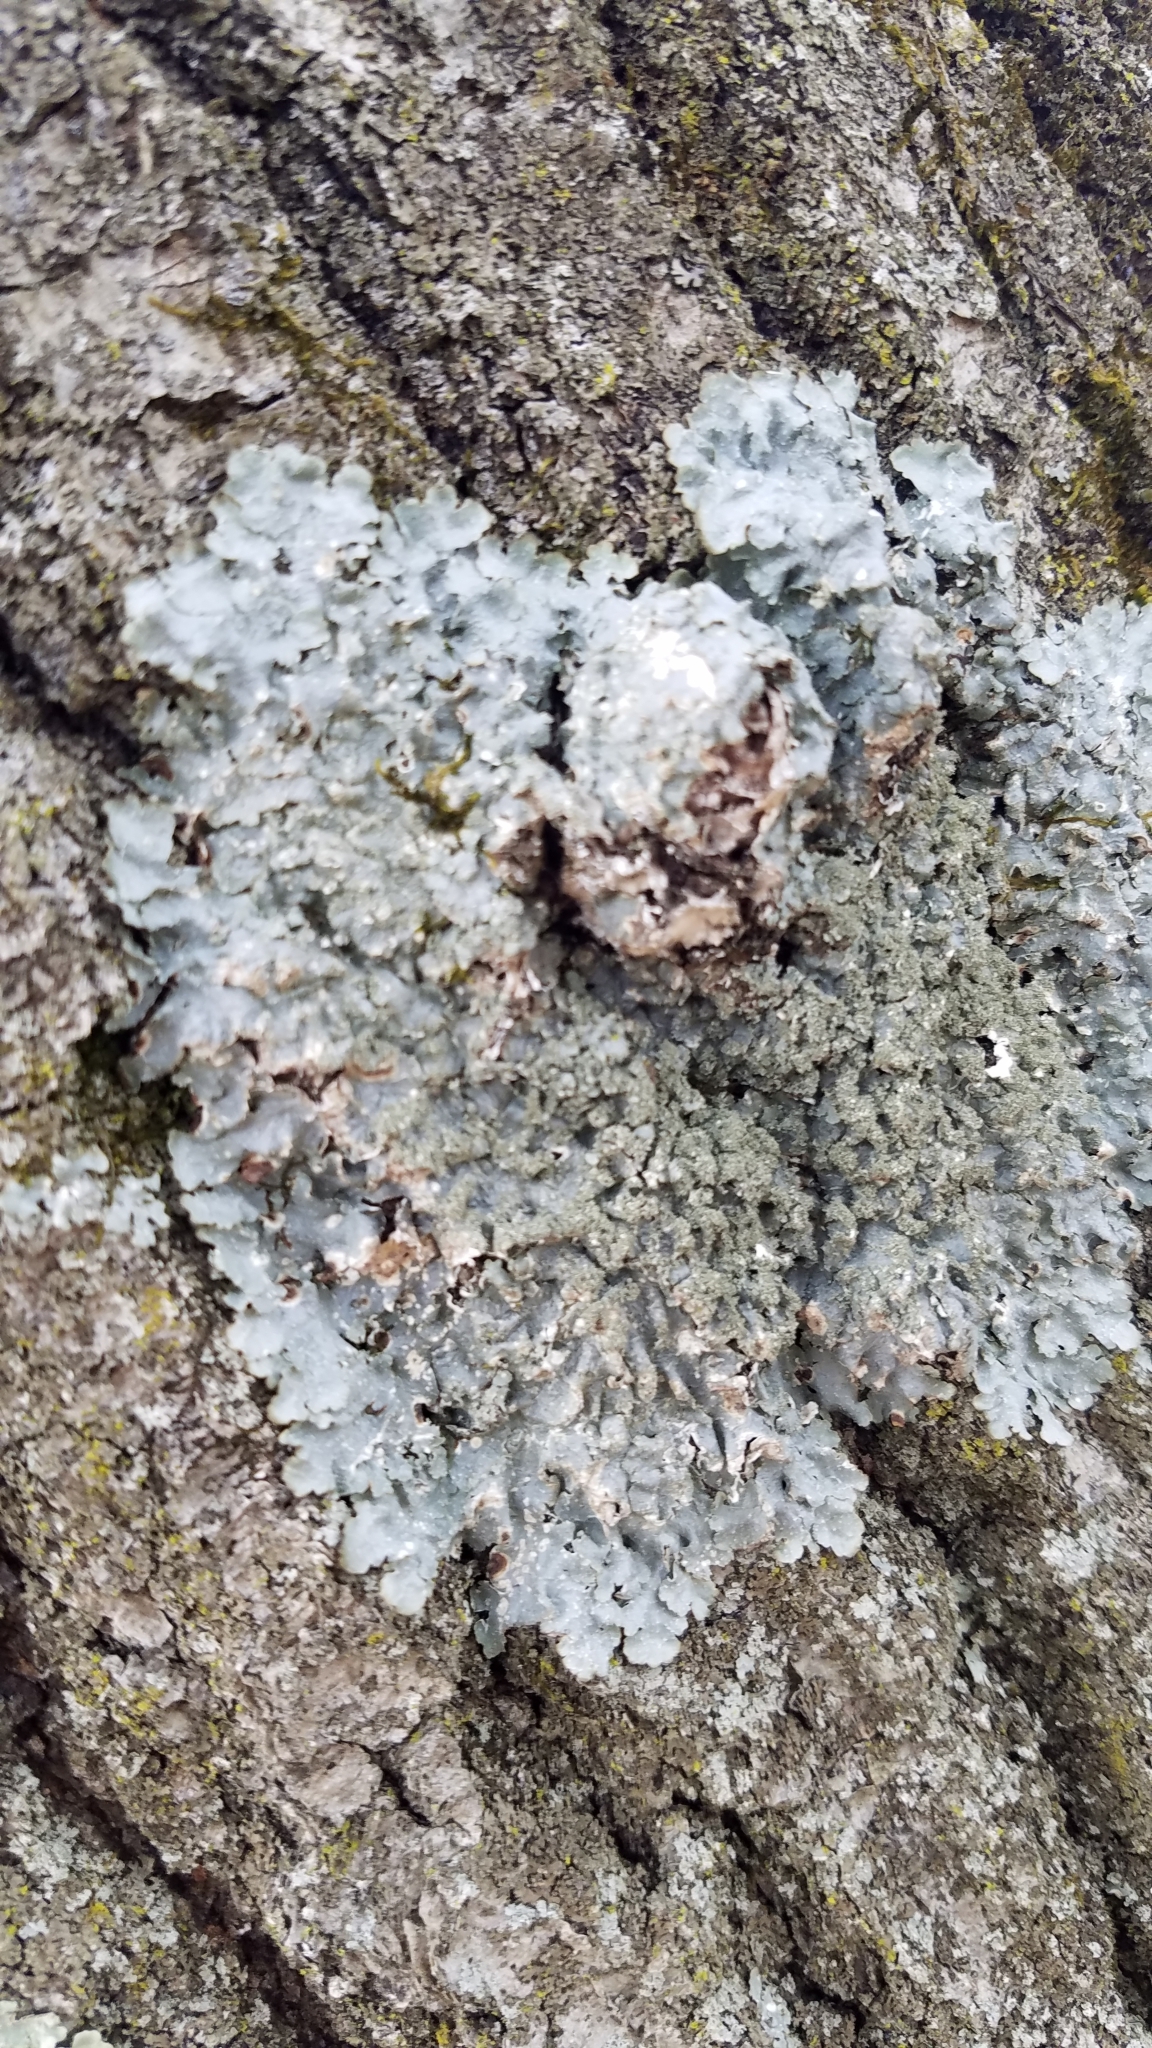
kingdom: Fungi
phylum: Ascomycota
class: Lecanoromycetes
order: Lecanorales
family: Parmeliaceae
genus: Punctelia
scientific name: Punctelia rudecta
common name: Rough speckled shield lichen
